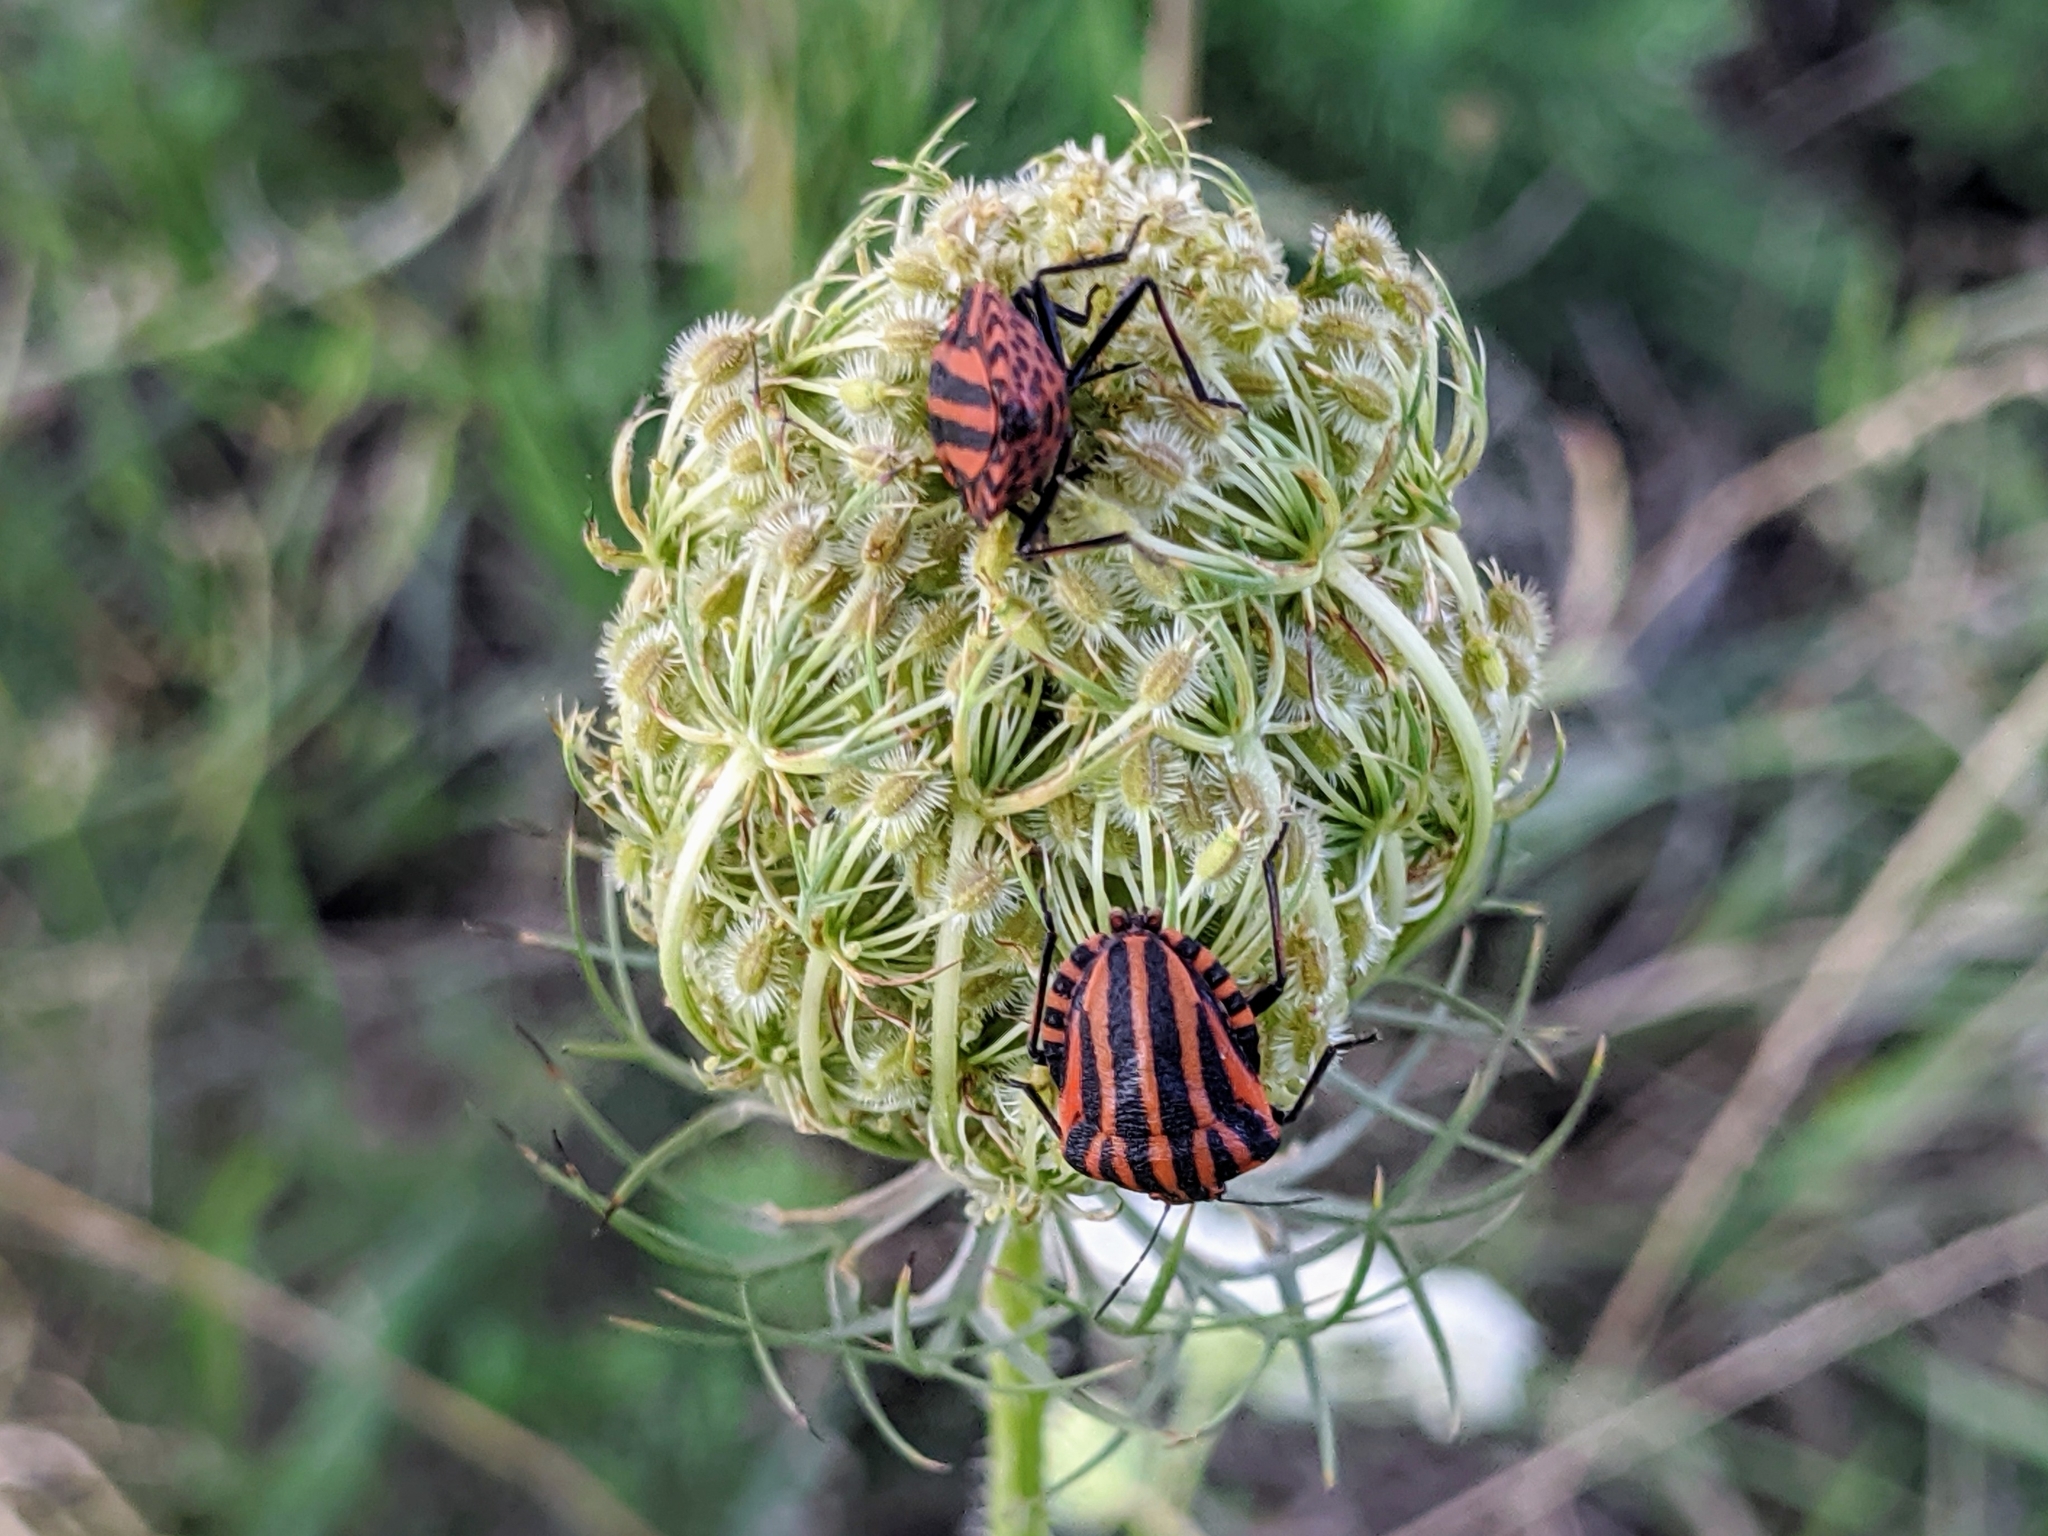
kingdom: Animalia
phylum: Arthropoda
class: Insecta
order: Hemiptera
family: Pentatomidae
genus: Graphosoma
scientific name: Graphosoma italicum
